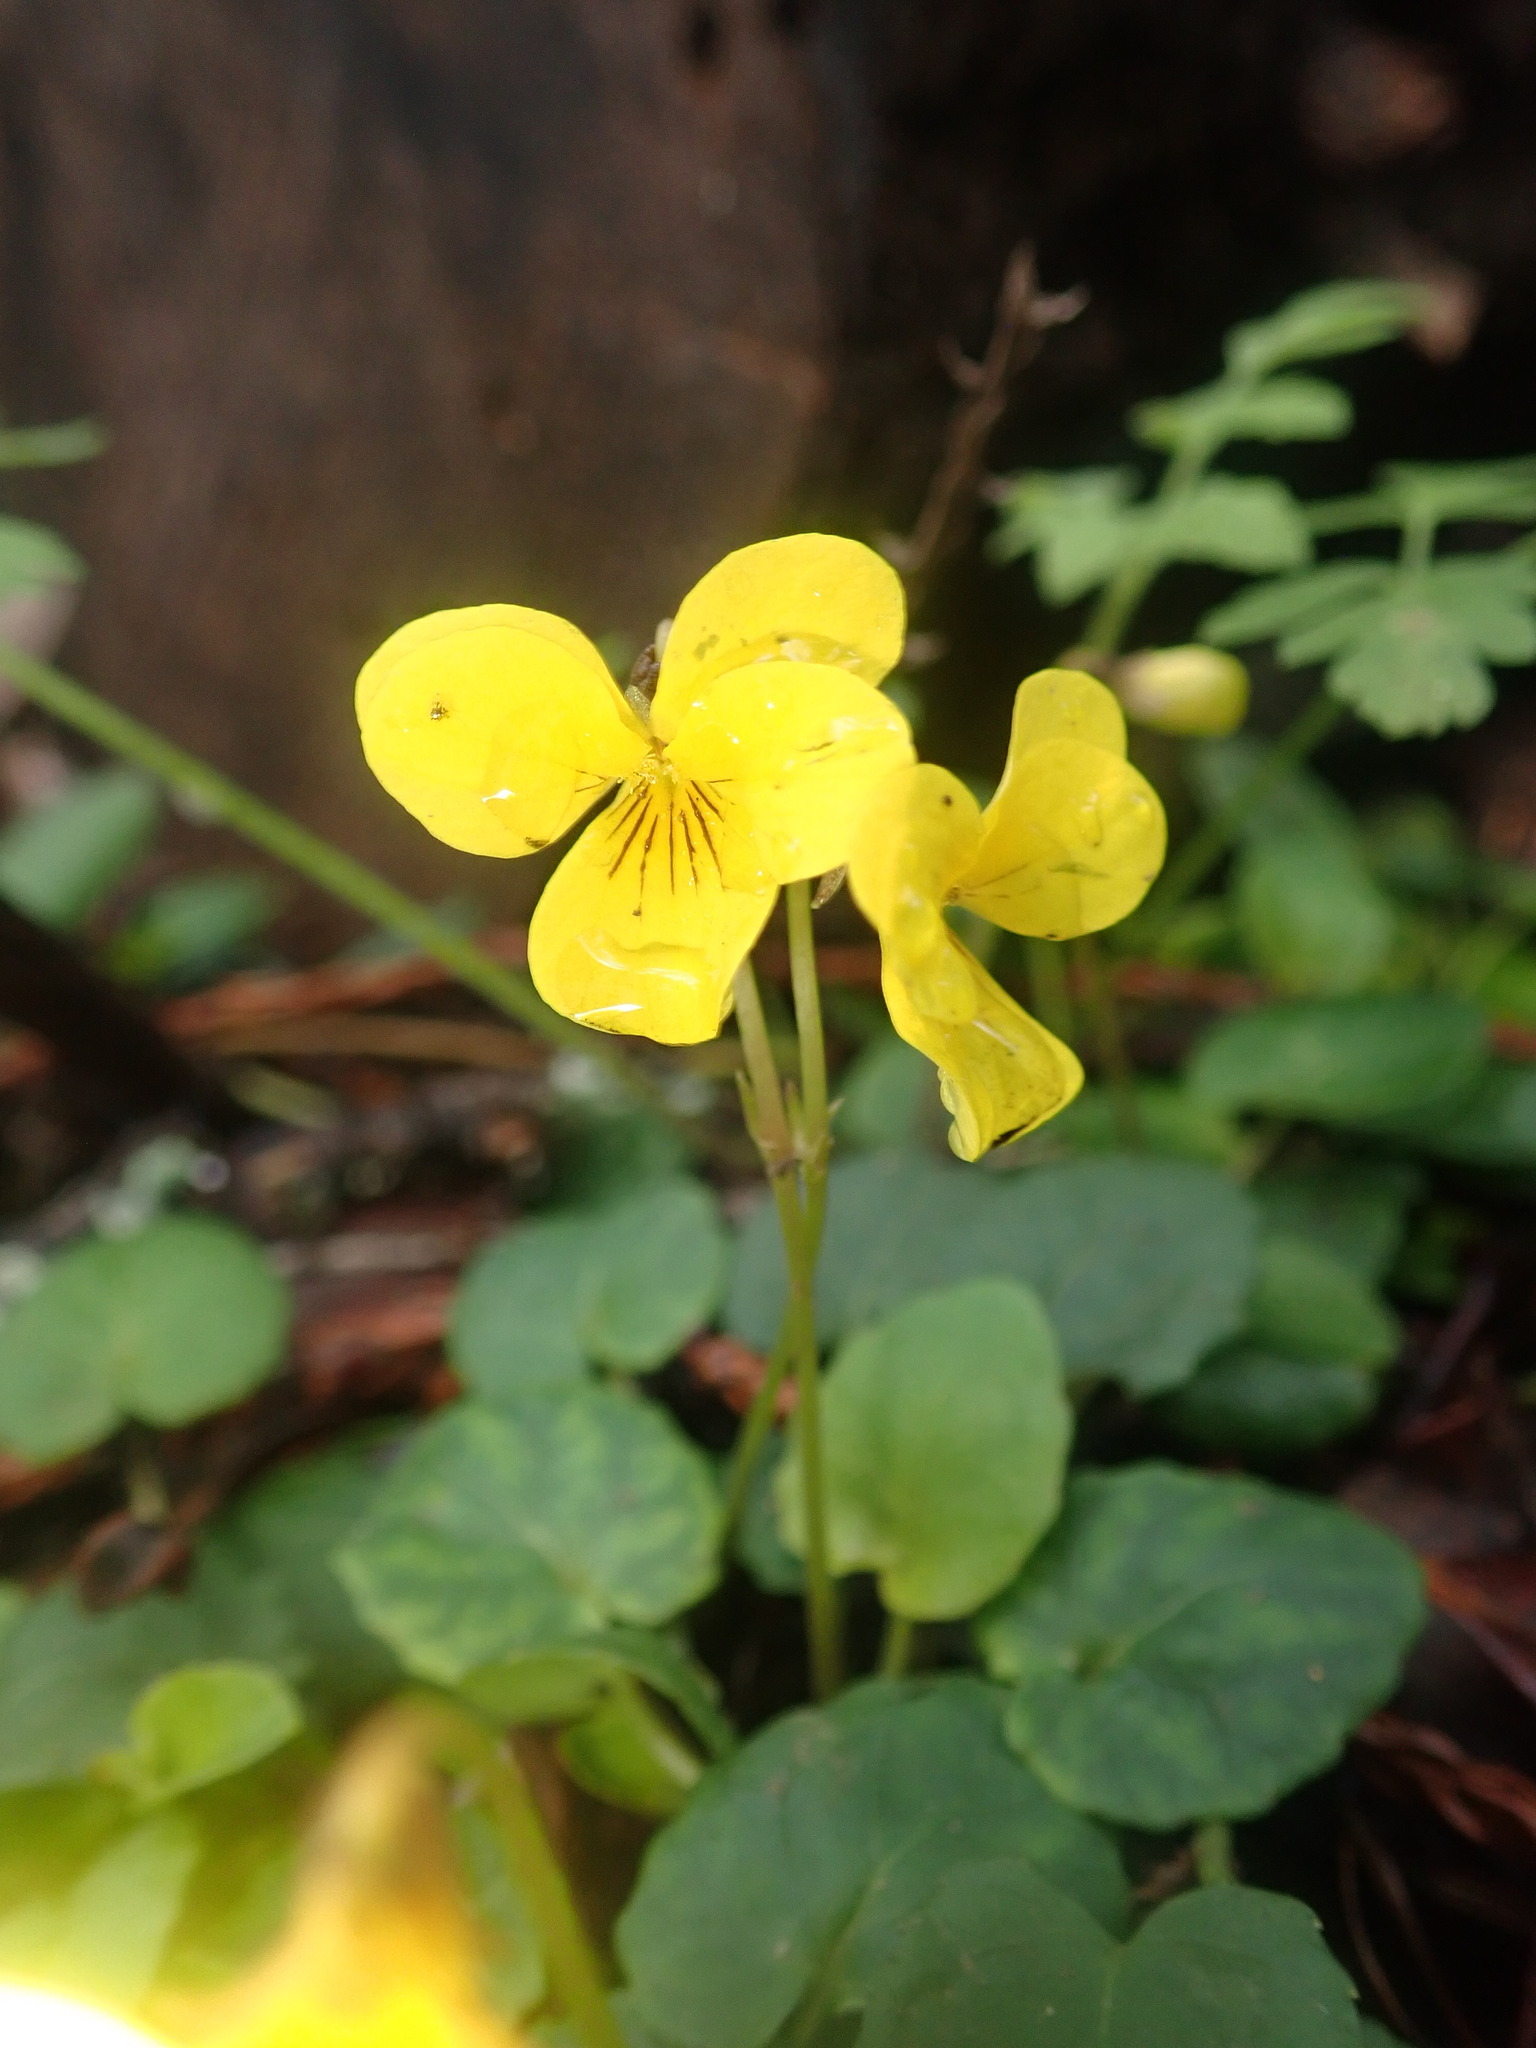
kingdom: Plantae
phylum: Tracheophyta
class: Magnoliopsida
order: Malpighiales
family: Violaceae
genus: Viola
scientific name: Viola sempervirens
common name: Evergreen violet
